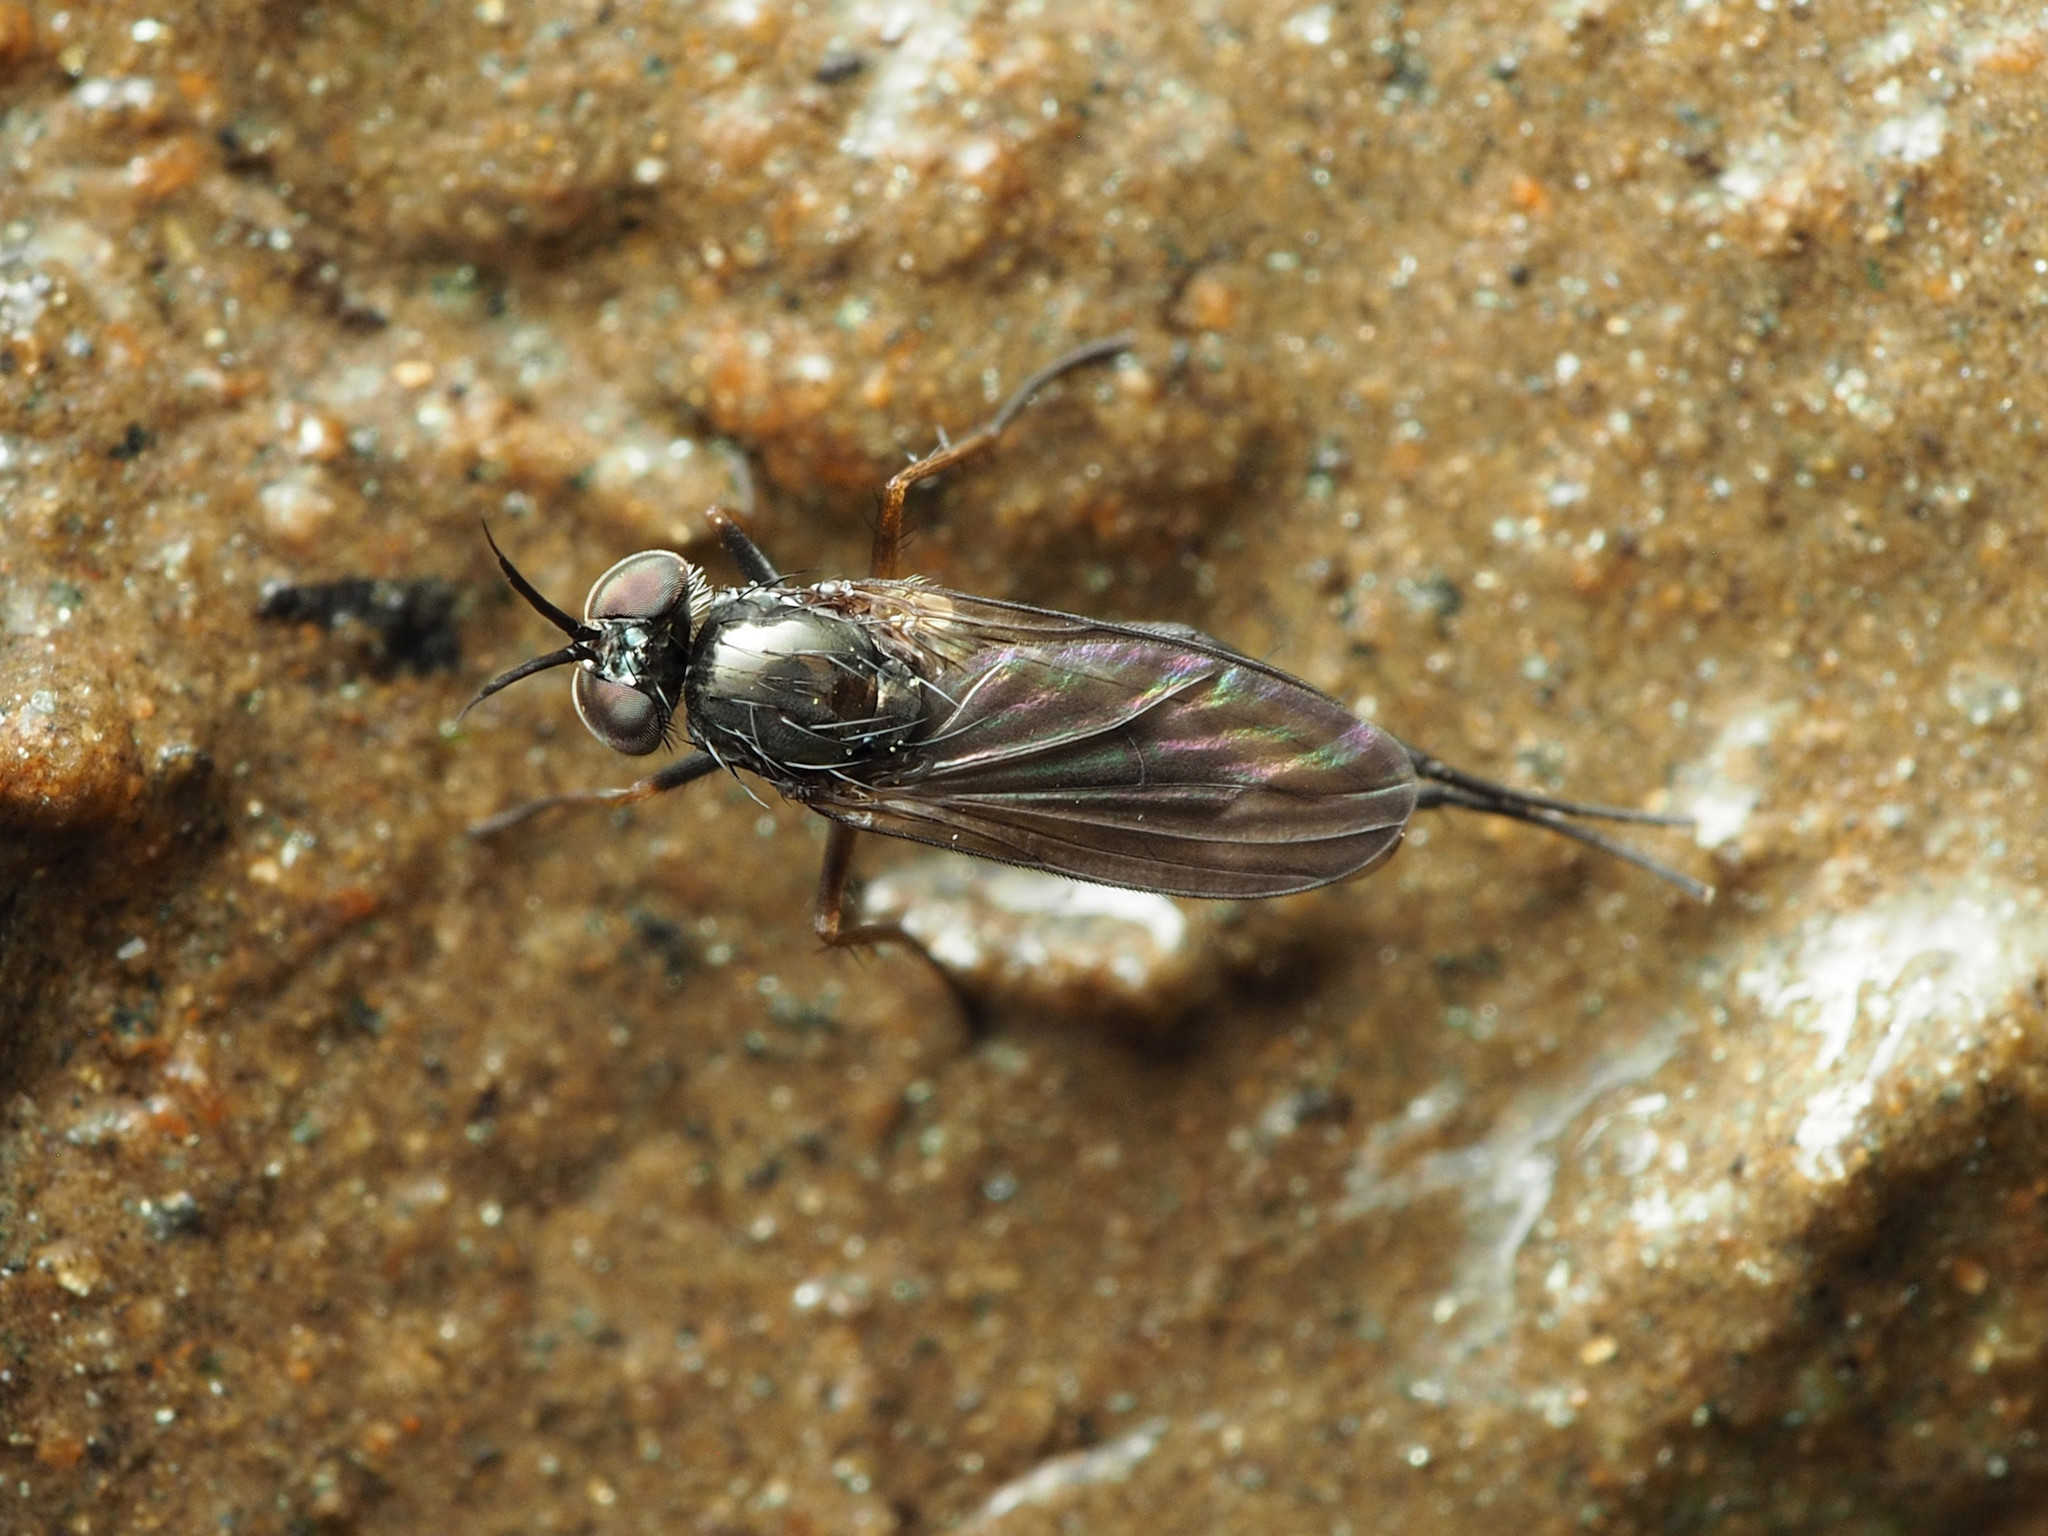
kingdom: Animalia
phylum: Arthropoda
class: Insecta
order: Diptera
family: Dolichopodidae
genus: Rhaphium
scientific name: Rhaphium lugubre
